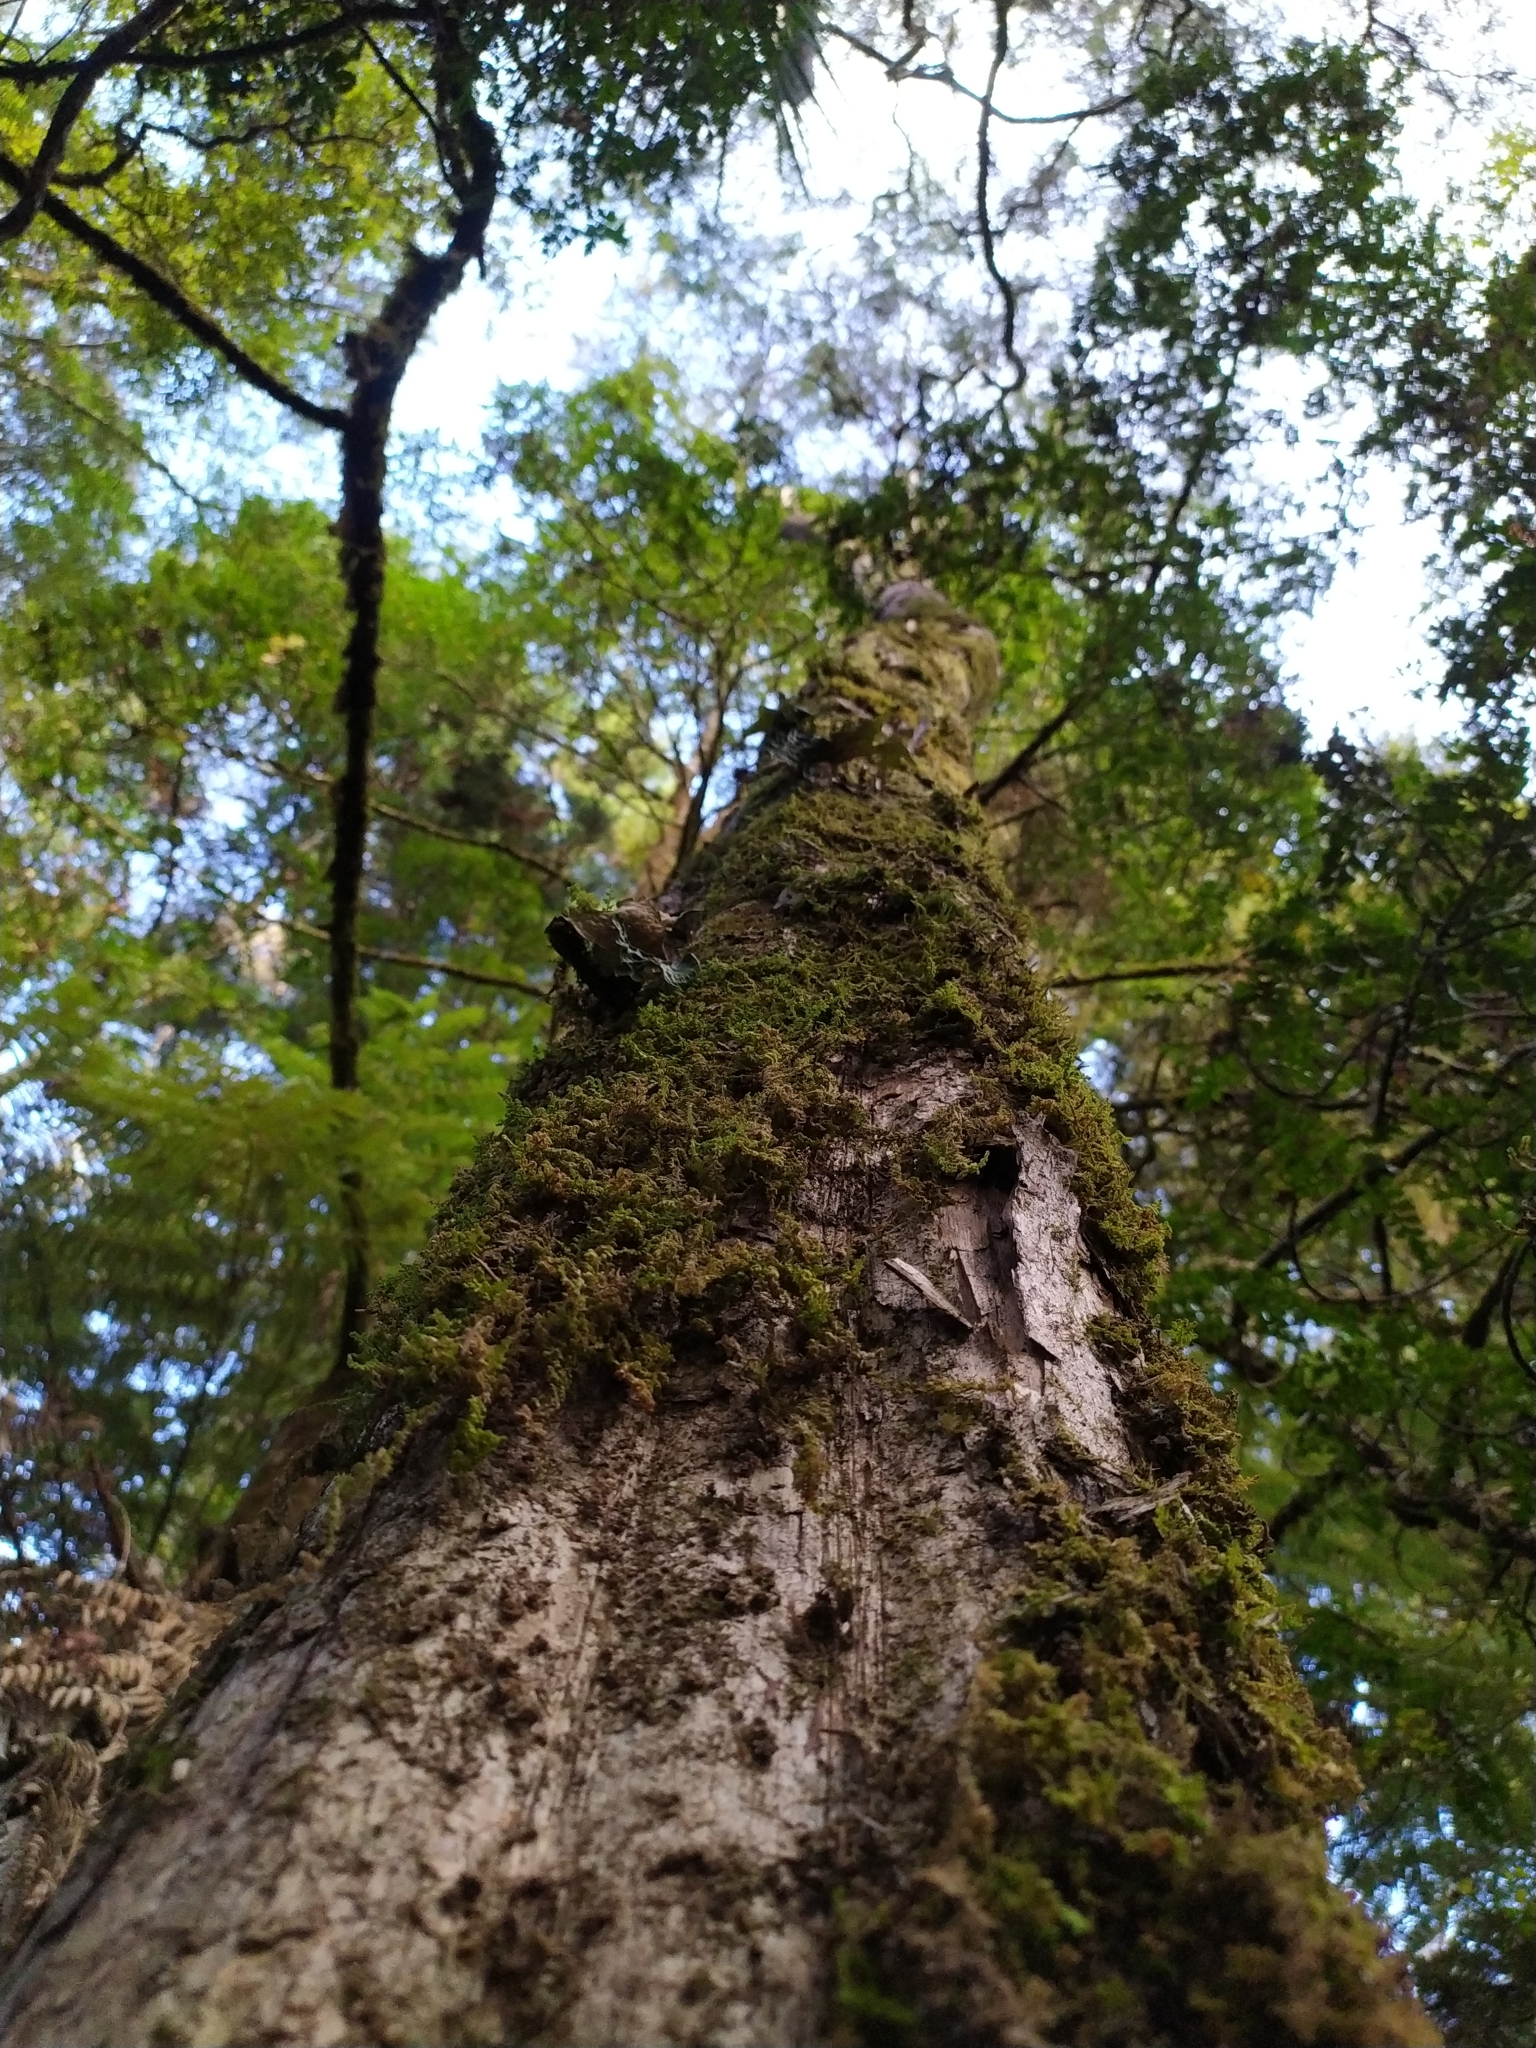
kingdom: Fungi
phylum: Ascomycota
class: Lecanoromycetes
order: Peltigerales
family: Lobariaceae
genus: Sticta
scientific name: Sticta latifrons
